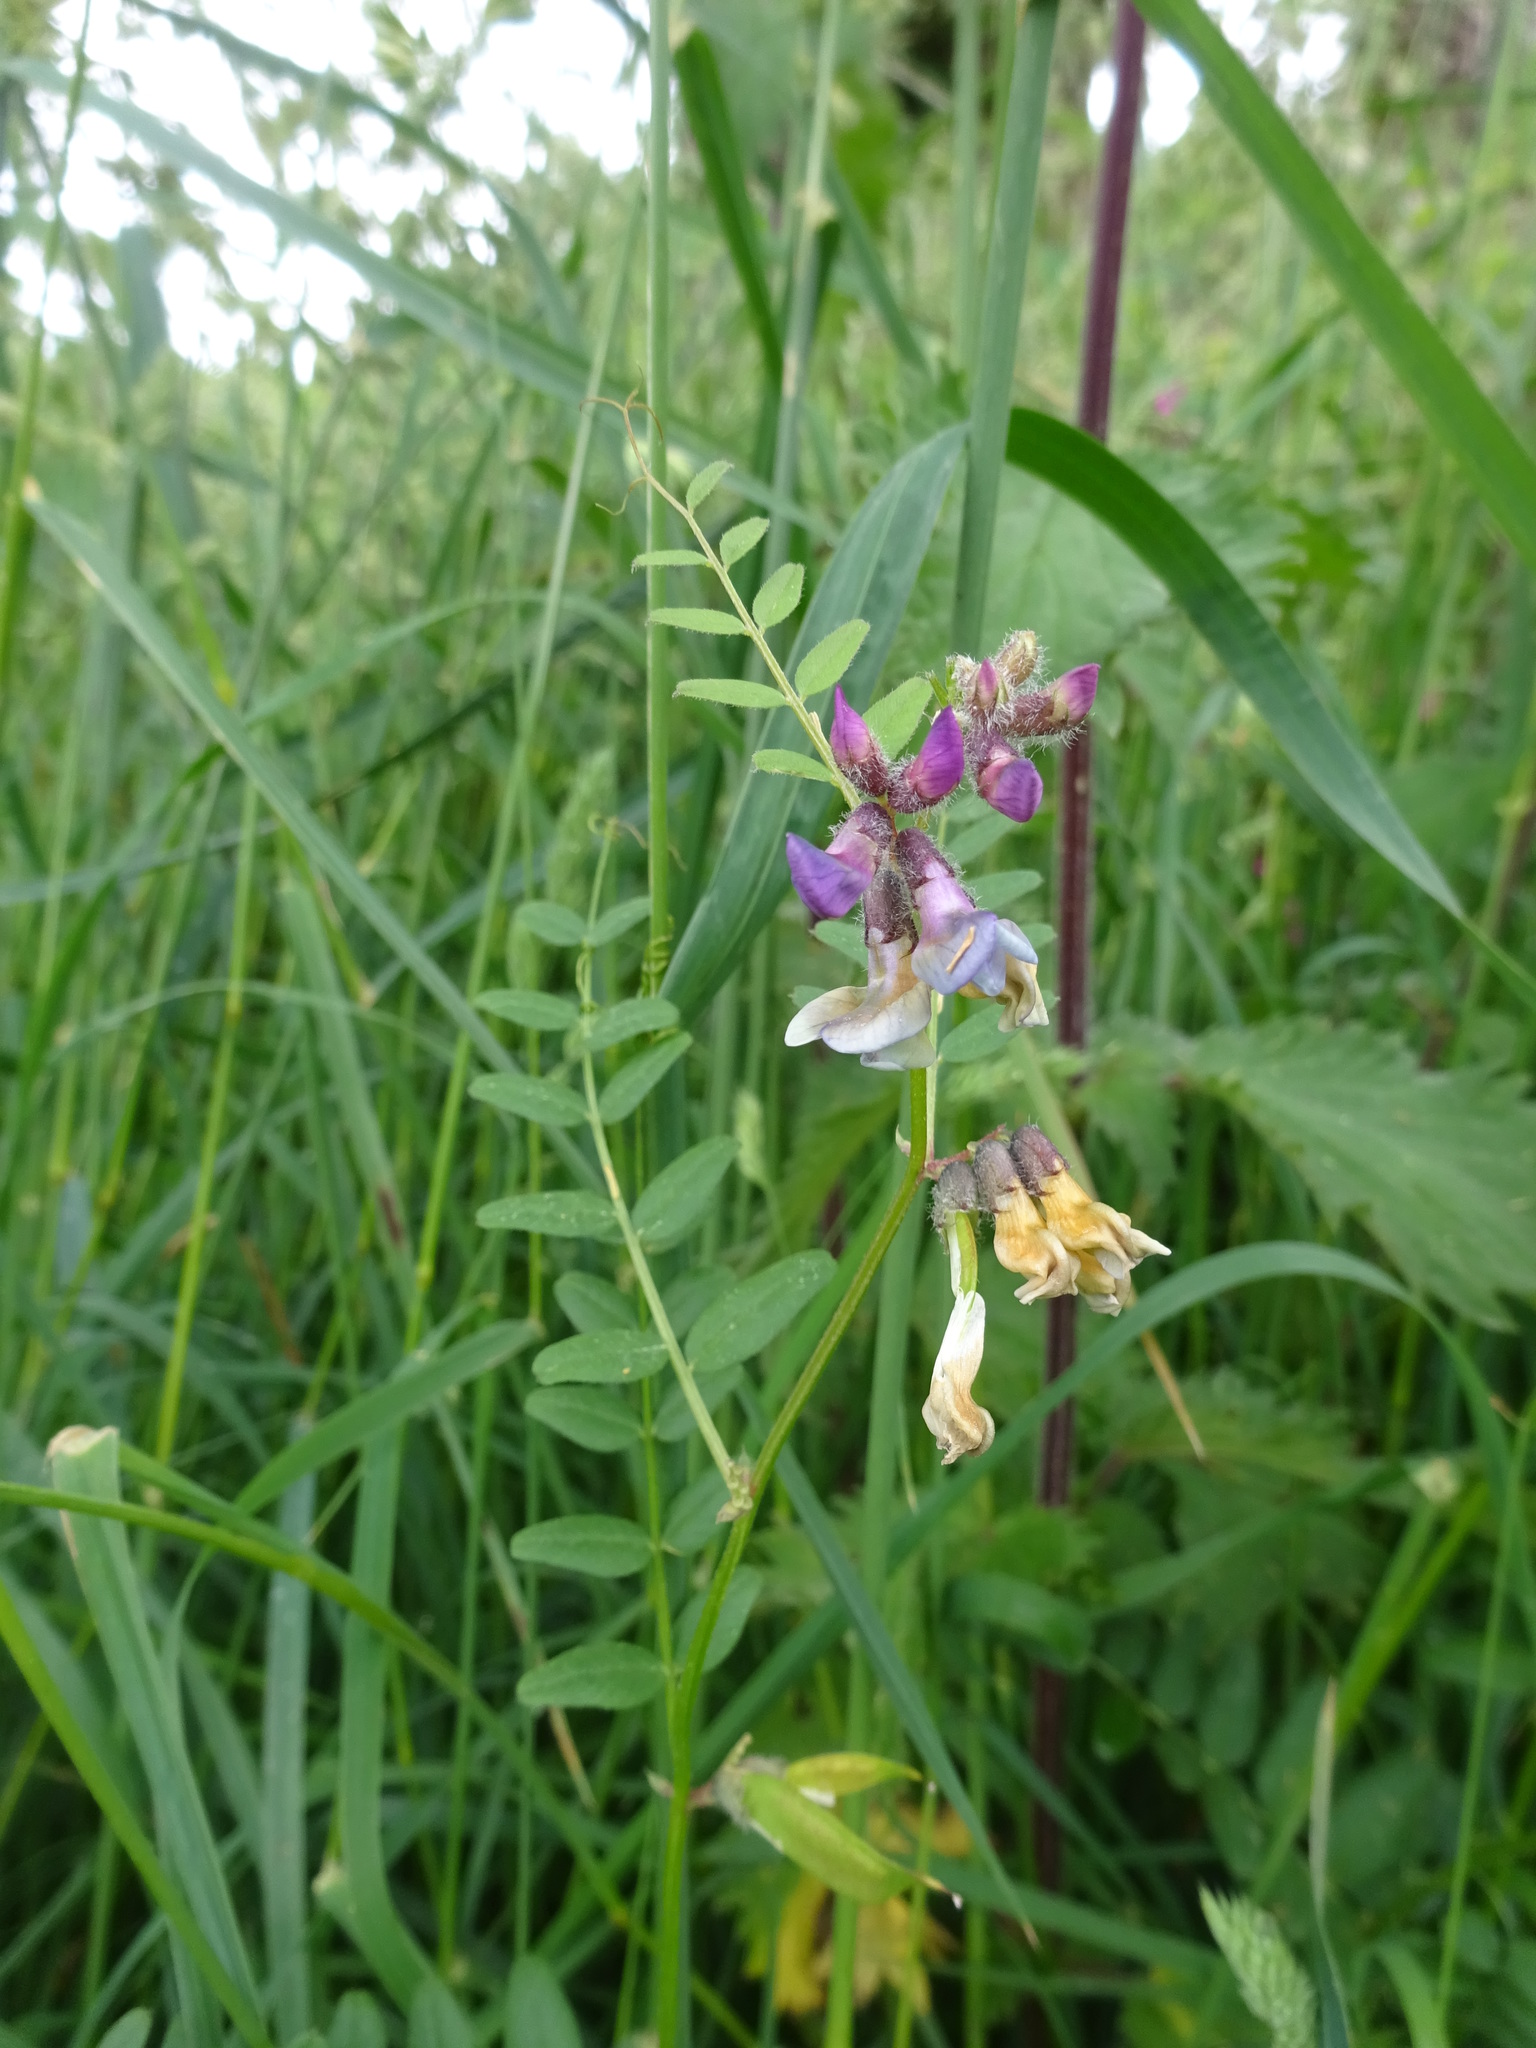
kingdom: Plantae
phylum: Tracheophyta
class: Magnoliopsida
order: Fabales
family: Fabaceae
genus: Vicia
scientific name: Vicia sepium
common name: Bush vetch
